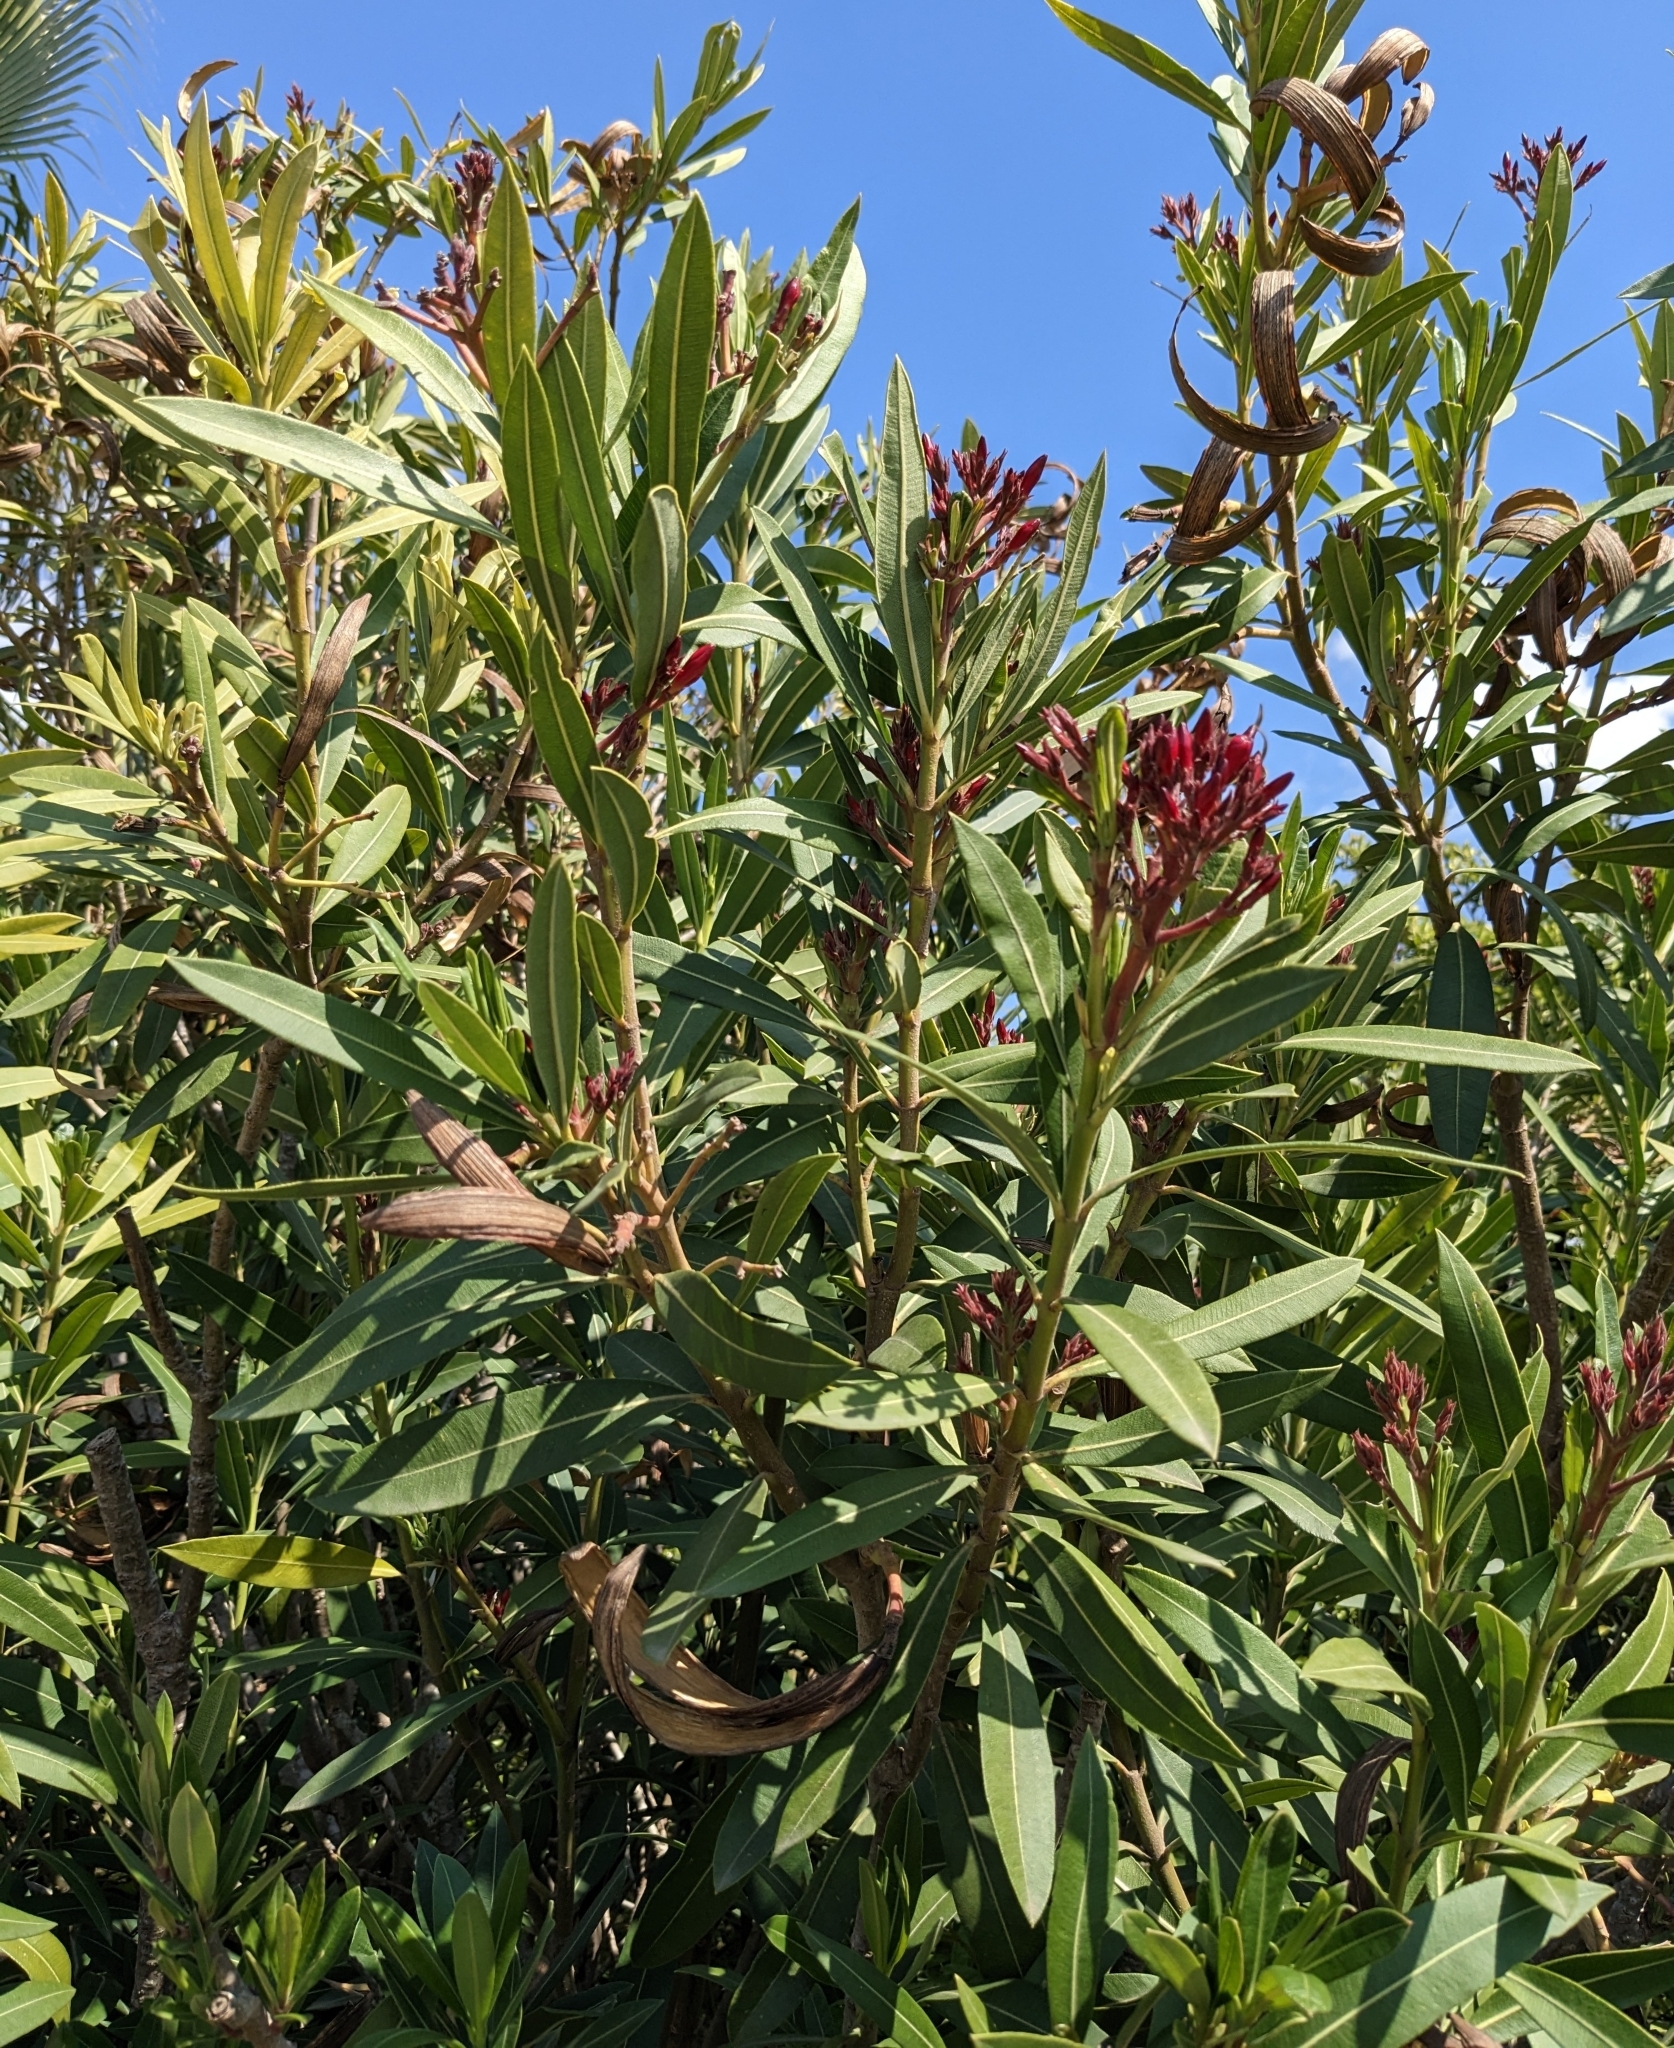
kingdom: Plantae
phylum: Tracheophyta
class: Magnoliopsida
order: Gentianales
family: Apocynaceae
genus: Nerium
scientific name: Nerium oleander
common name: Oleander
